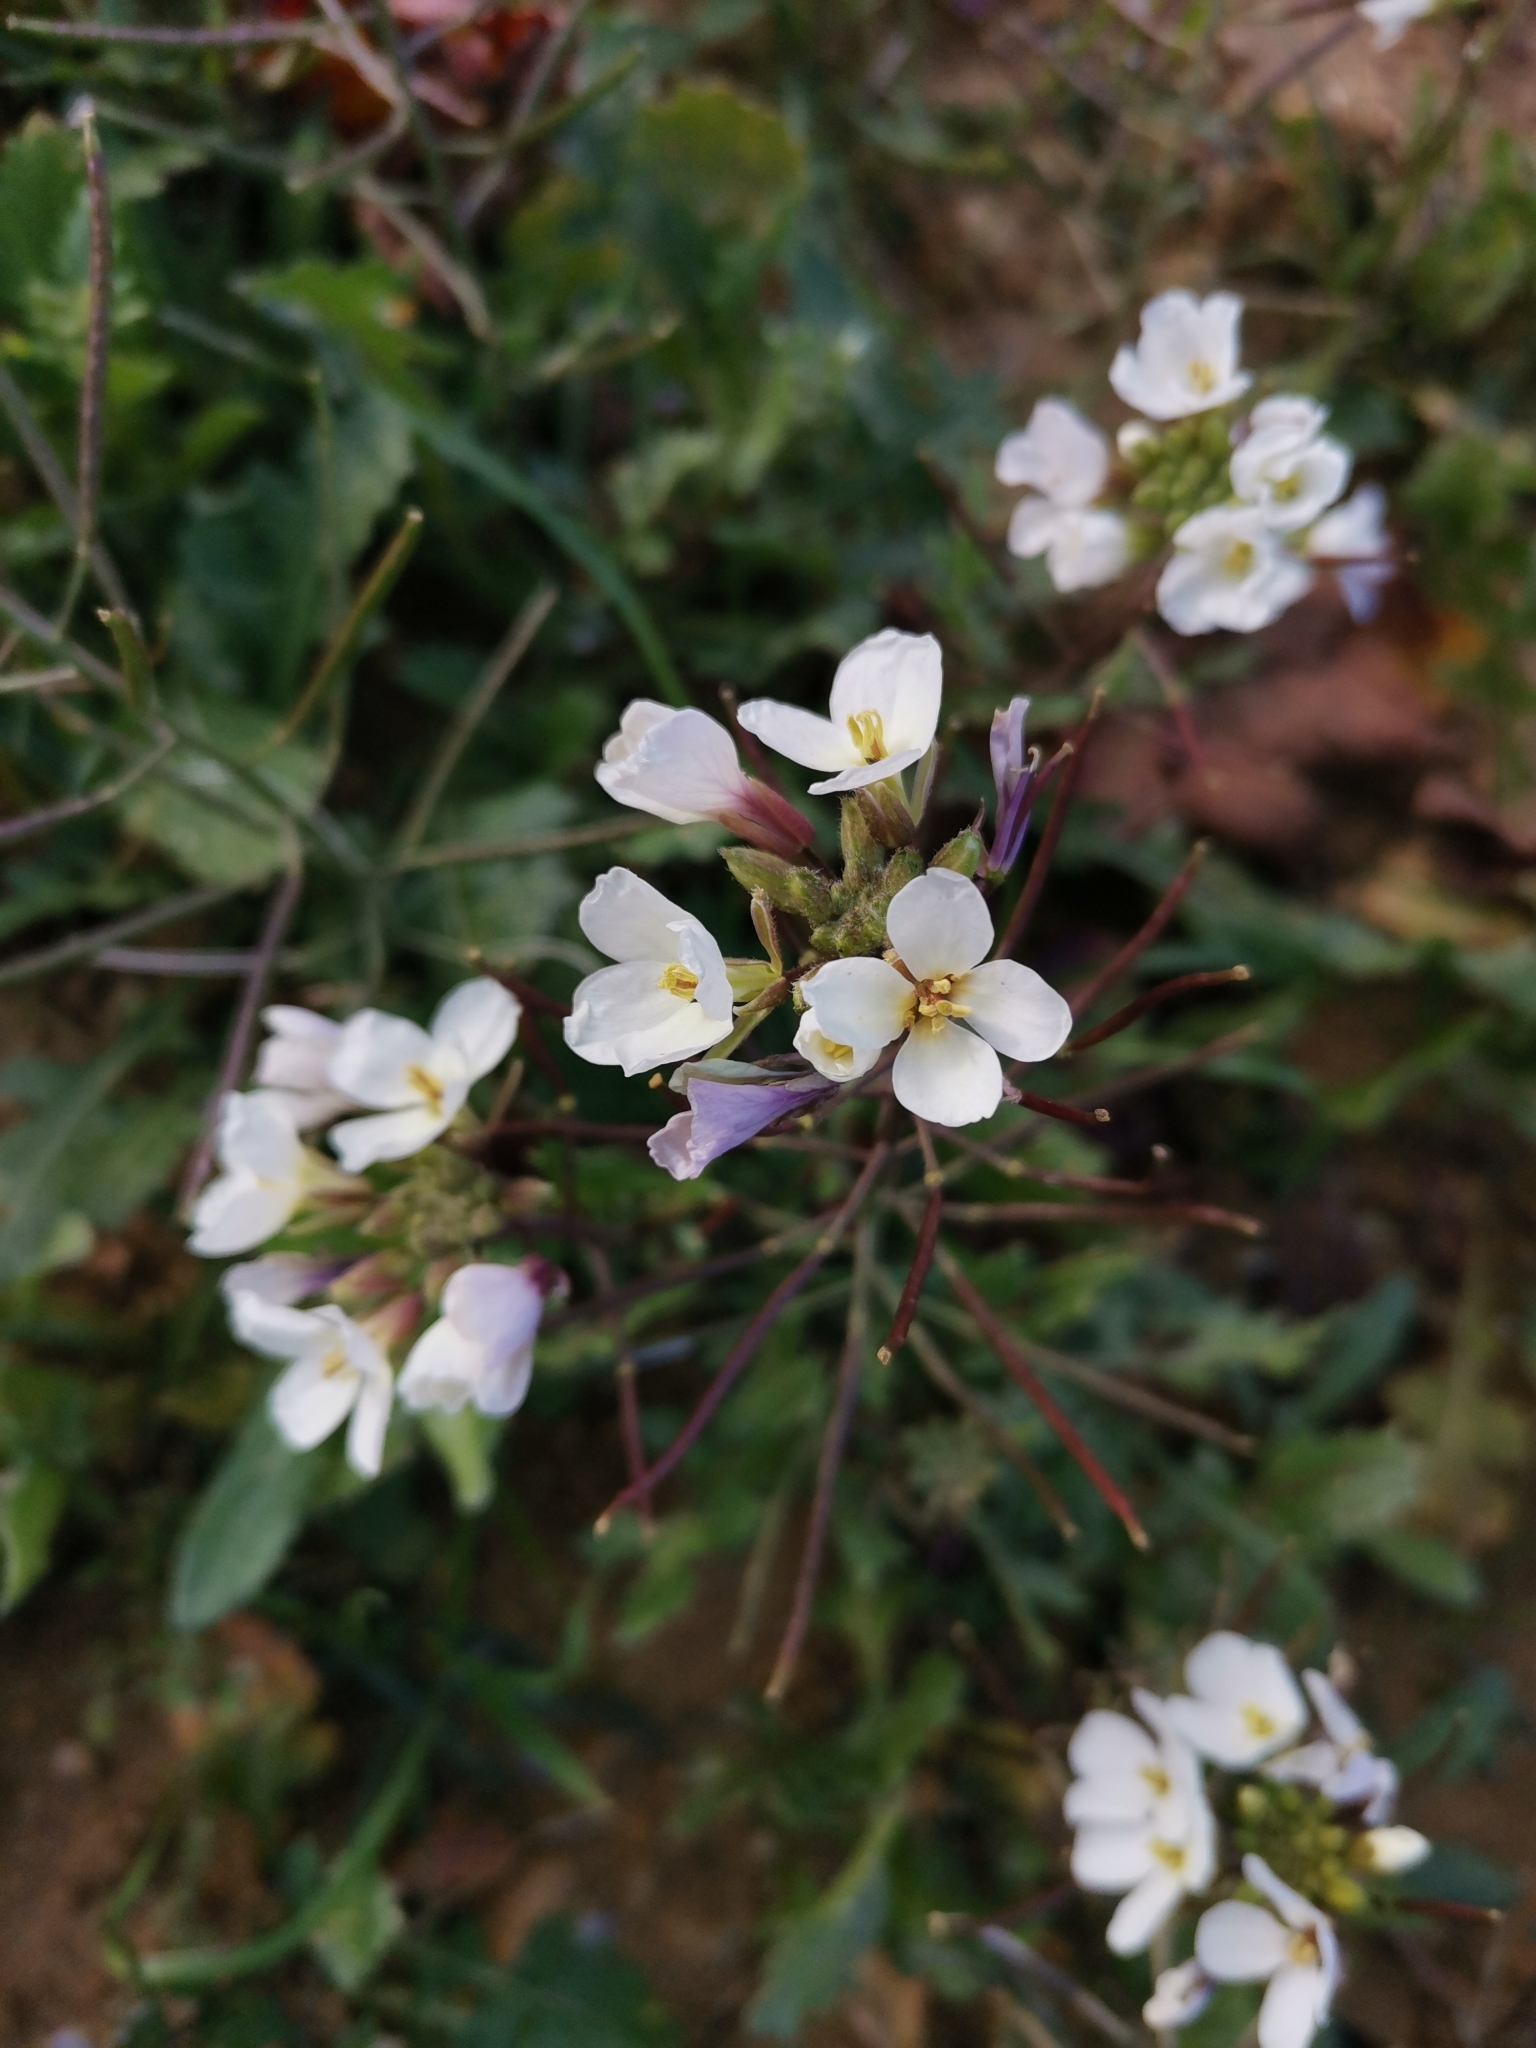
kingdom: Plantae
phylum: Tracheophyta
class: Magnoliopsida
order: Brassicales
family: Brassicaceae
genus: Diplotaxis
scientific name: Diplotaxis erucoides
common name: White rocket
